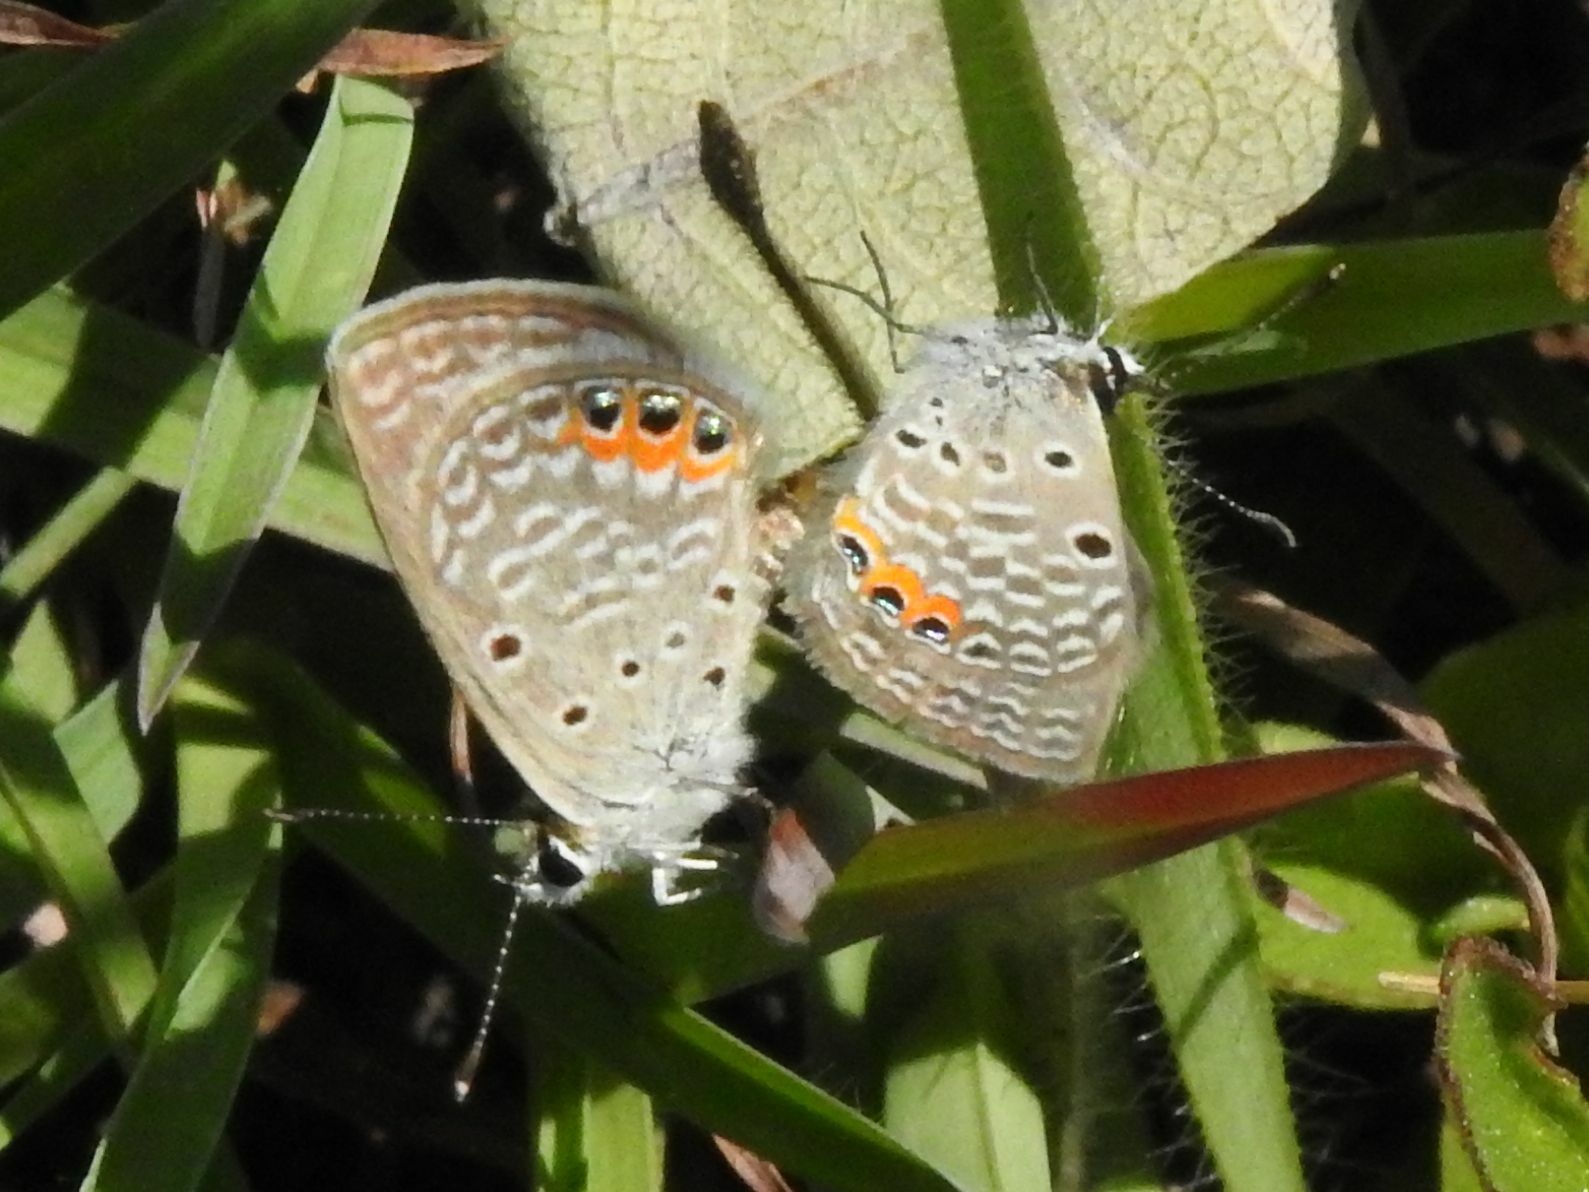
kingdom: Animalia
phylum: Arthropoda
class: Insecta
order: Lepidoptera
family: Lycaenidae
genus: Freyeria
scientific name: Freyeria trochylus
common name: Grass jewel
